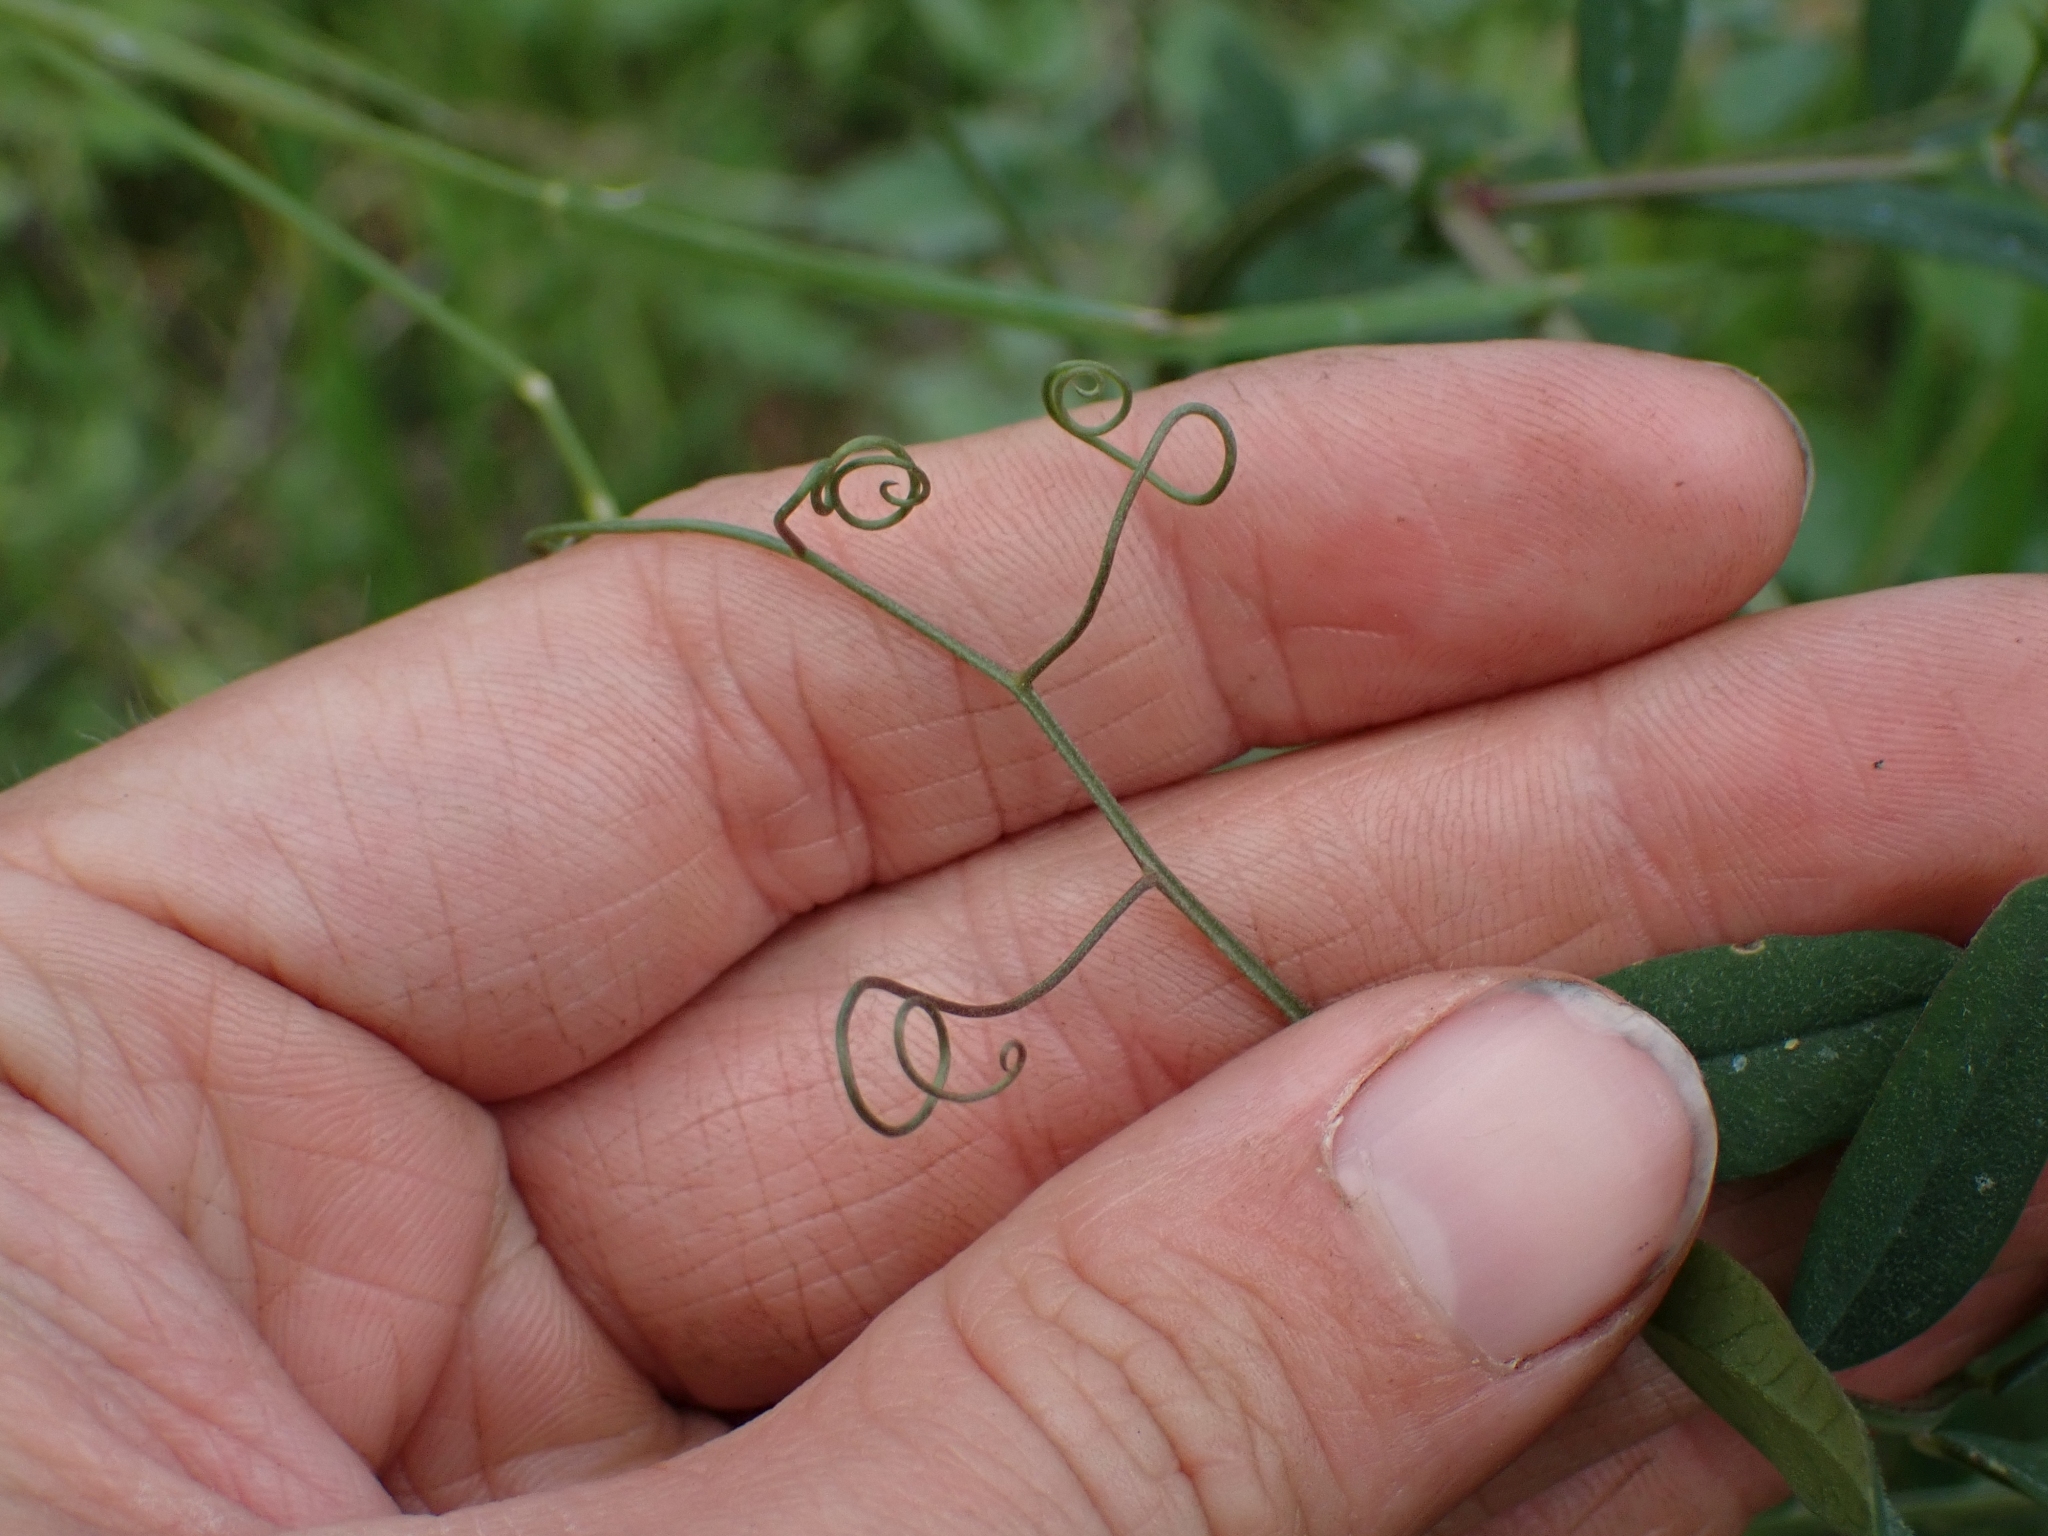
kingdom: Plantae
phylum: Tracheophyta
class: Magnoliopsida
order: Fabales
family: Fabaceae
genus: Vicia
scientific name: Vicia americana
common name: American vetch
